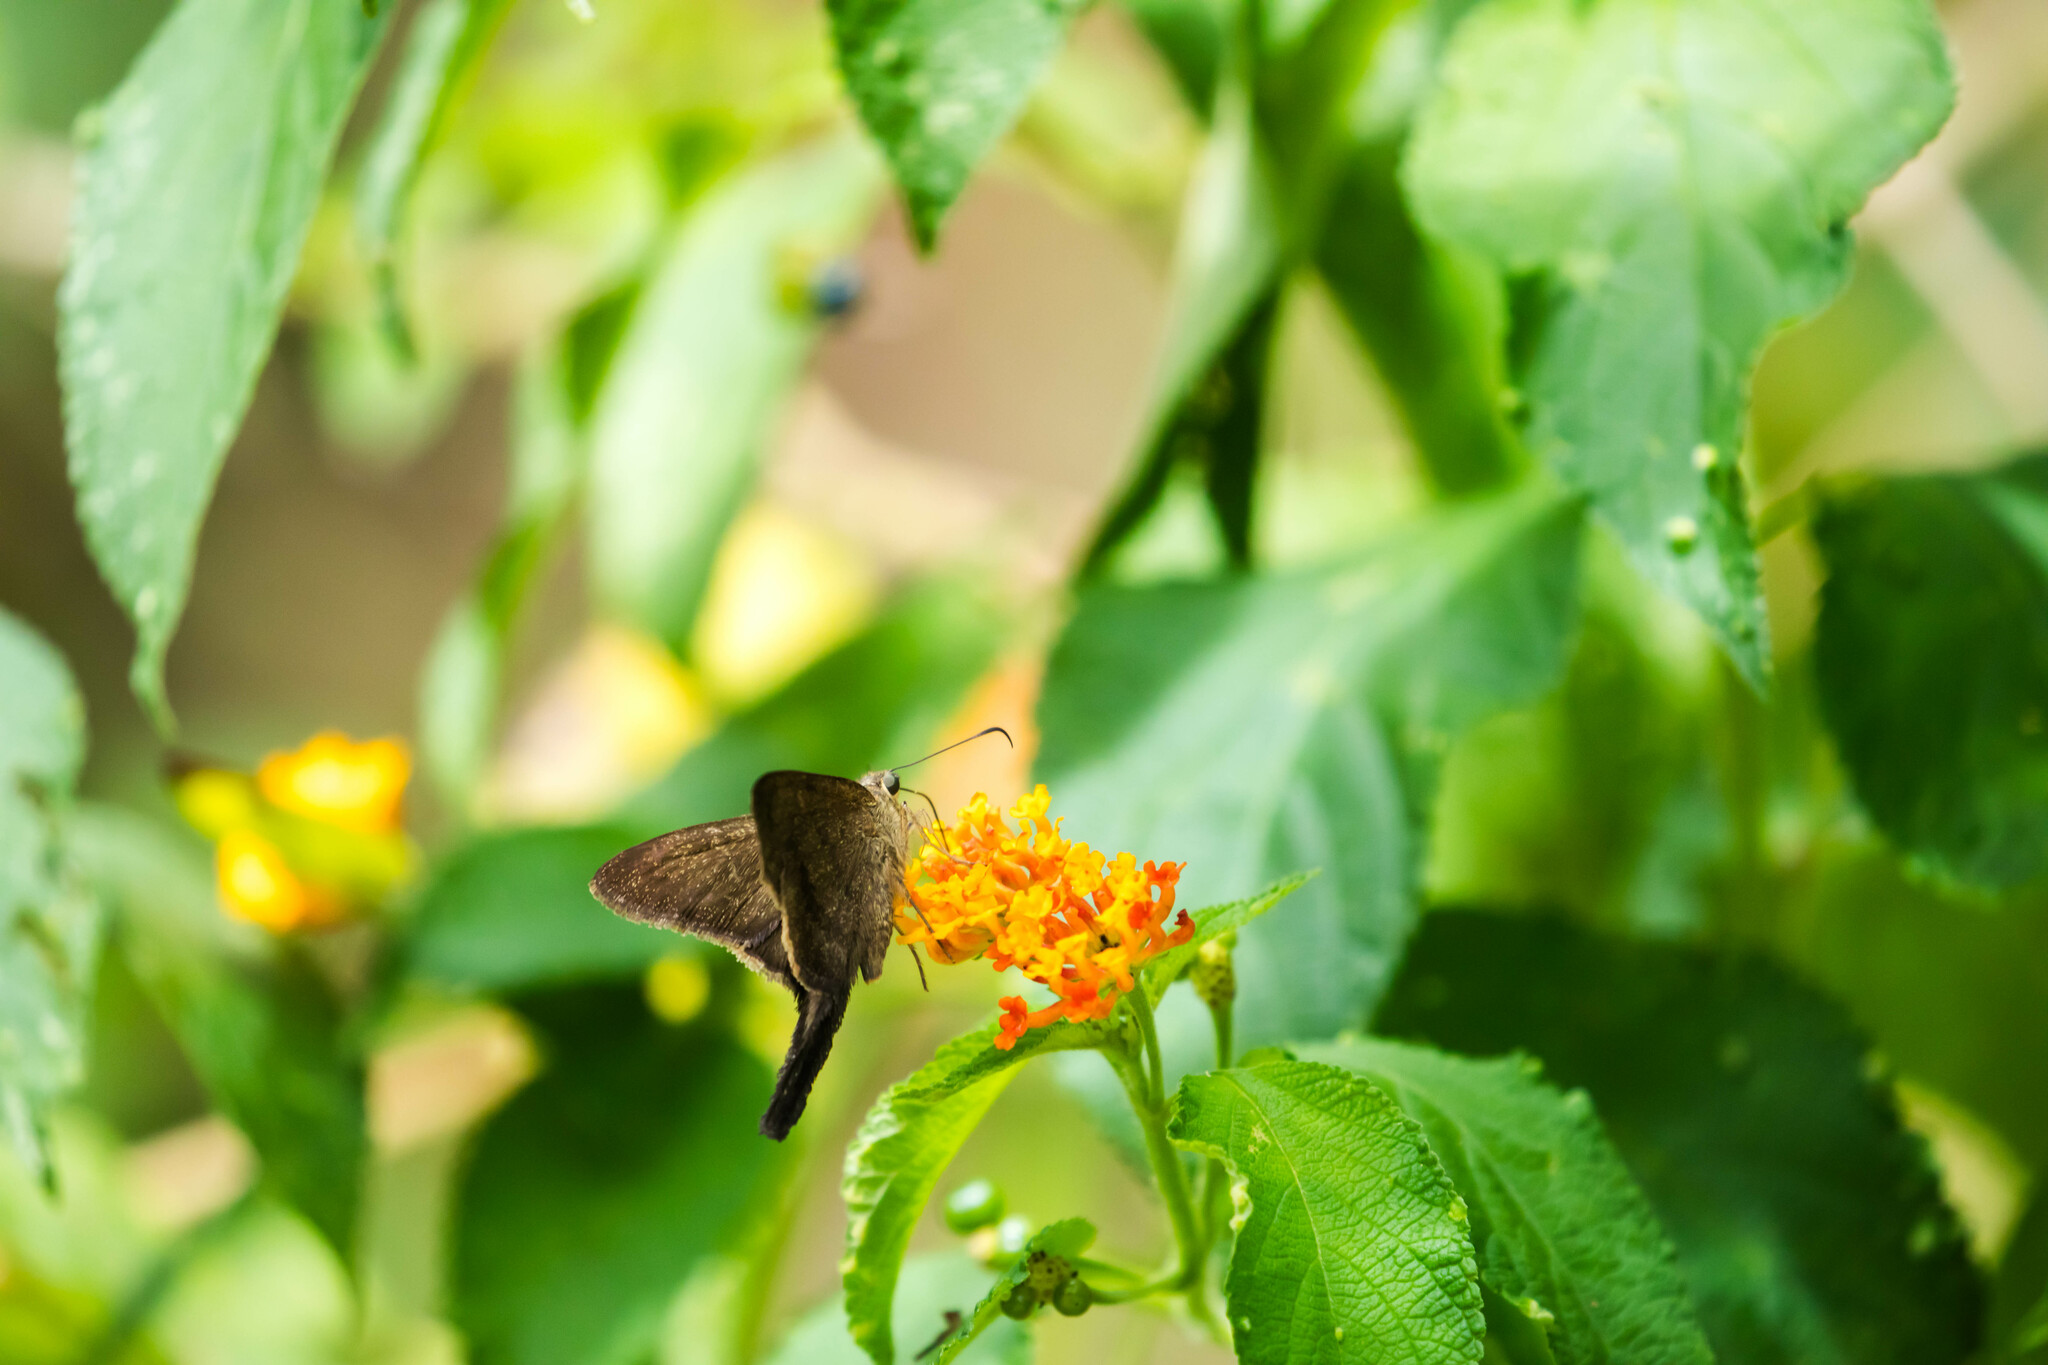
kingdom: Animalia
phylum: Arthropoda
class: Insecta
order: Lepidoptera
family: Hesperiidae
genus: Urbanus
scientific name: Urbanus simplicius
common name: Plain longtail
